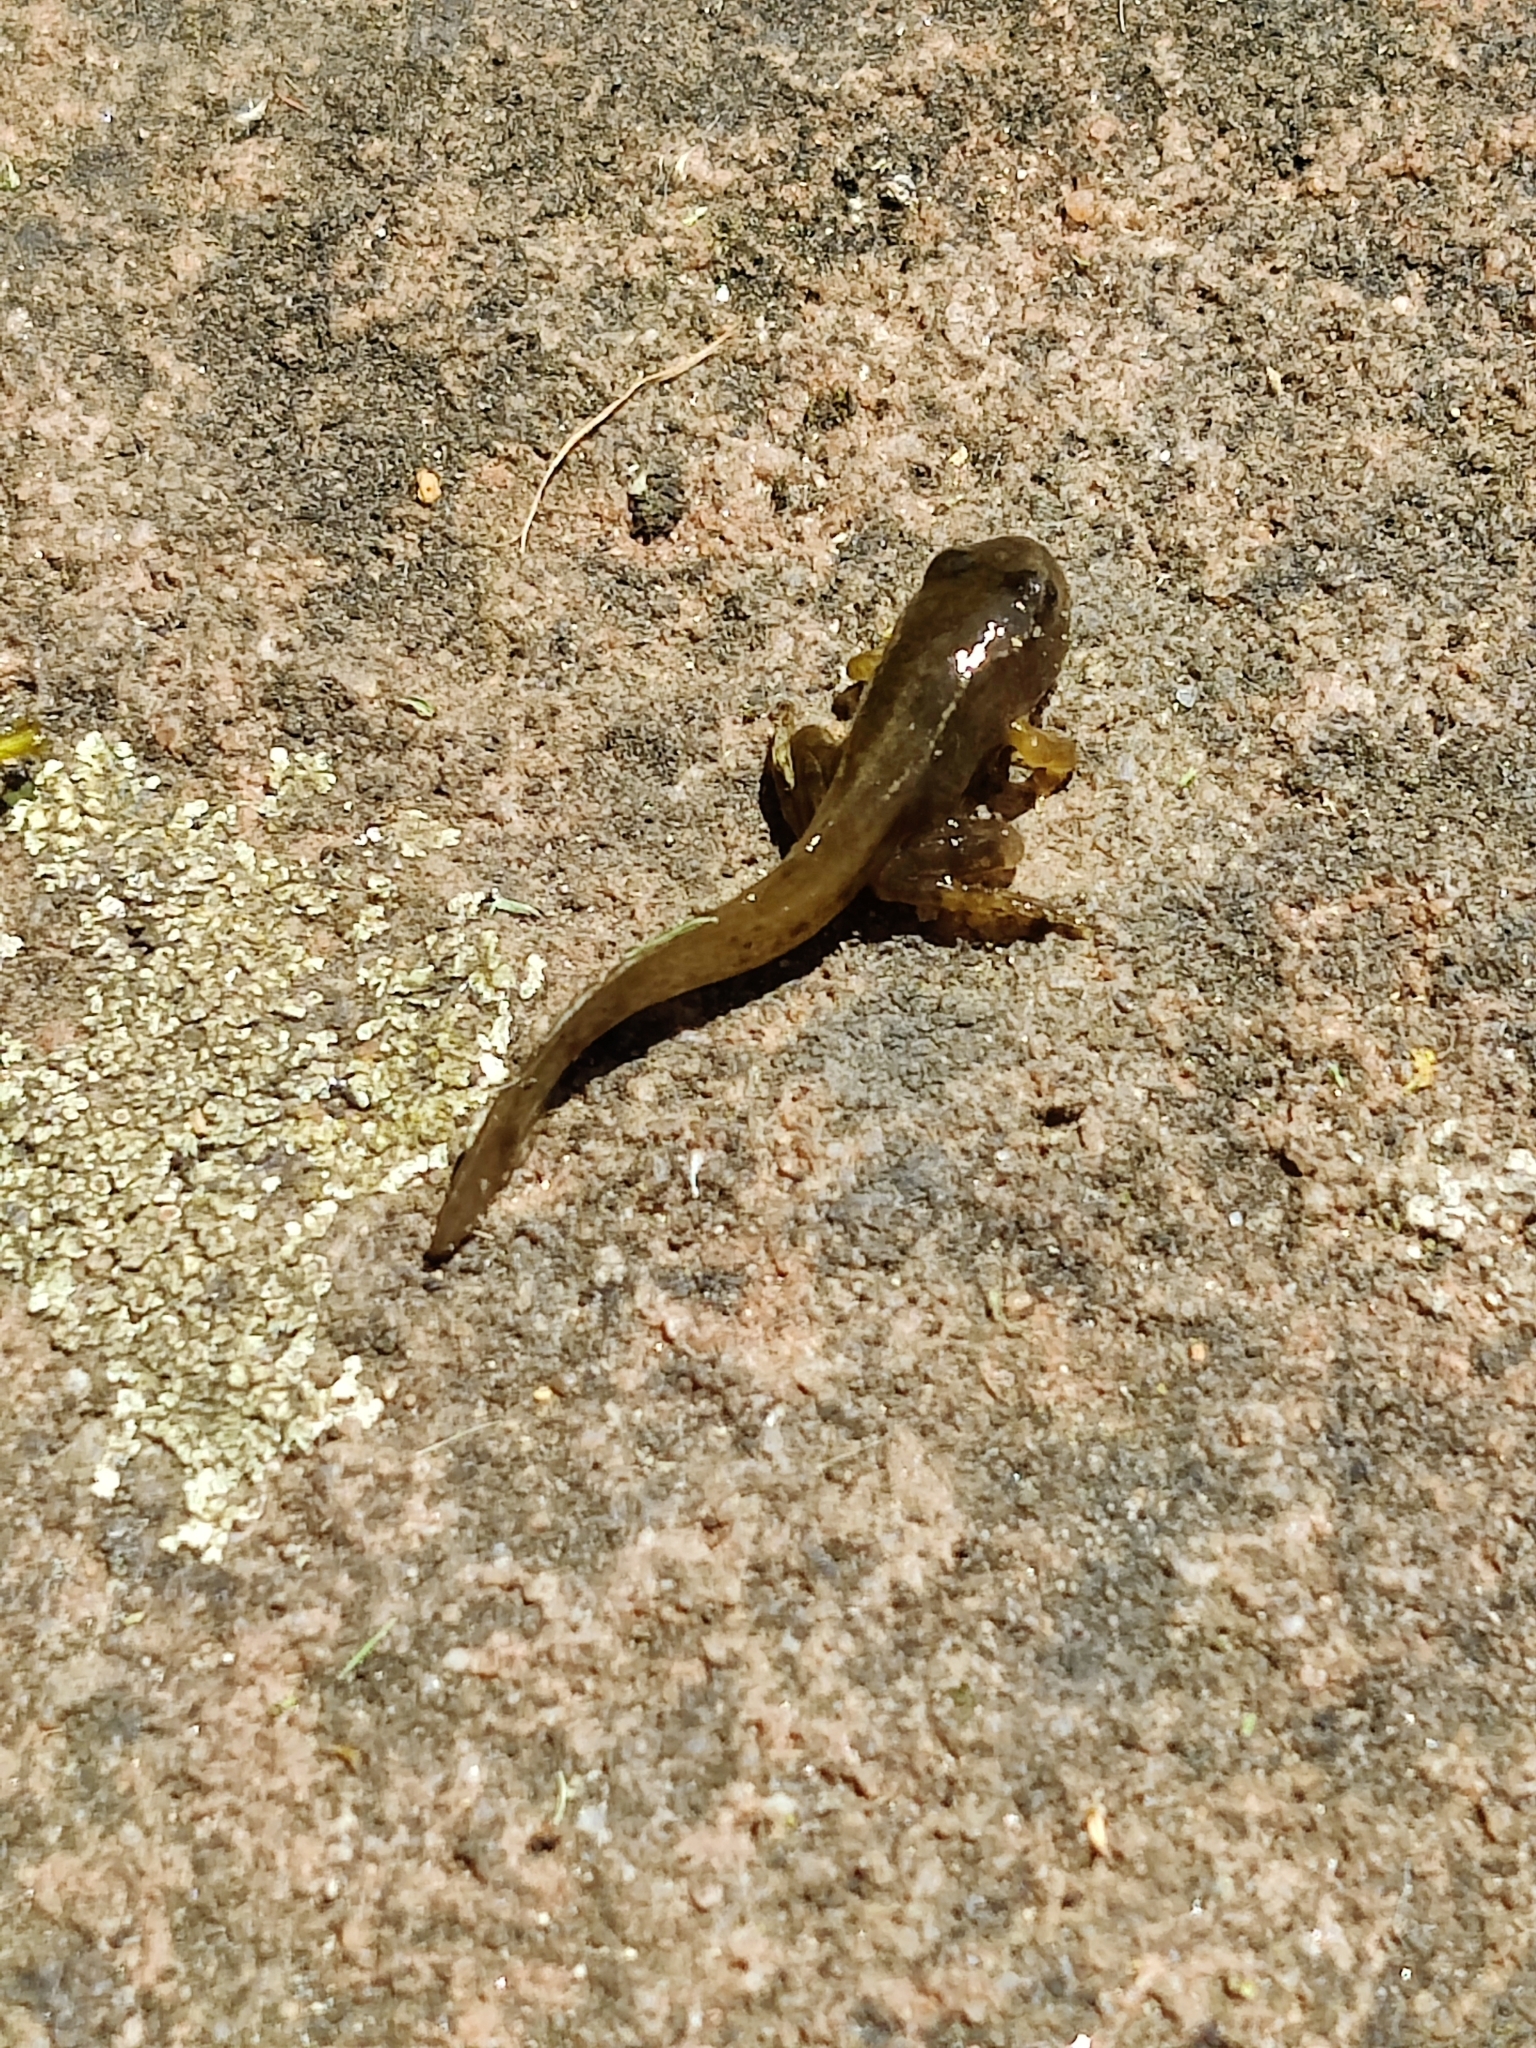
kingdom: Animalia
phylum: Chordata
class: Amphibia
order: Anura
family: Ranidae
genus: Rana
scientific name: Rana temporaria
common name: Common frog
